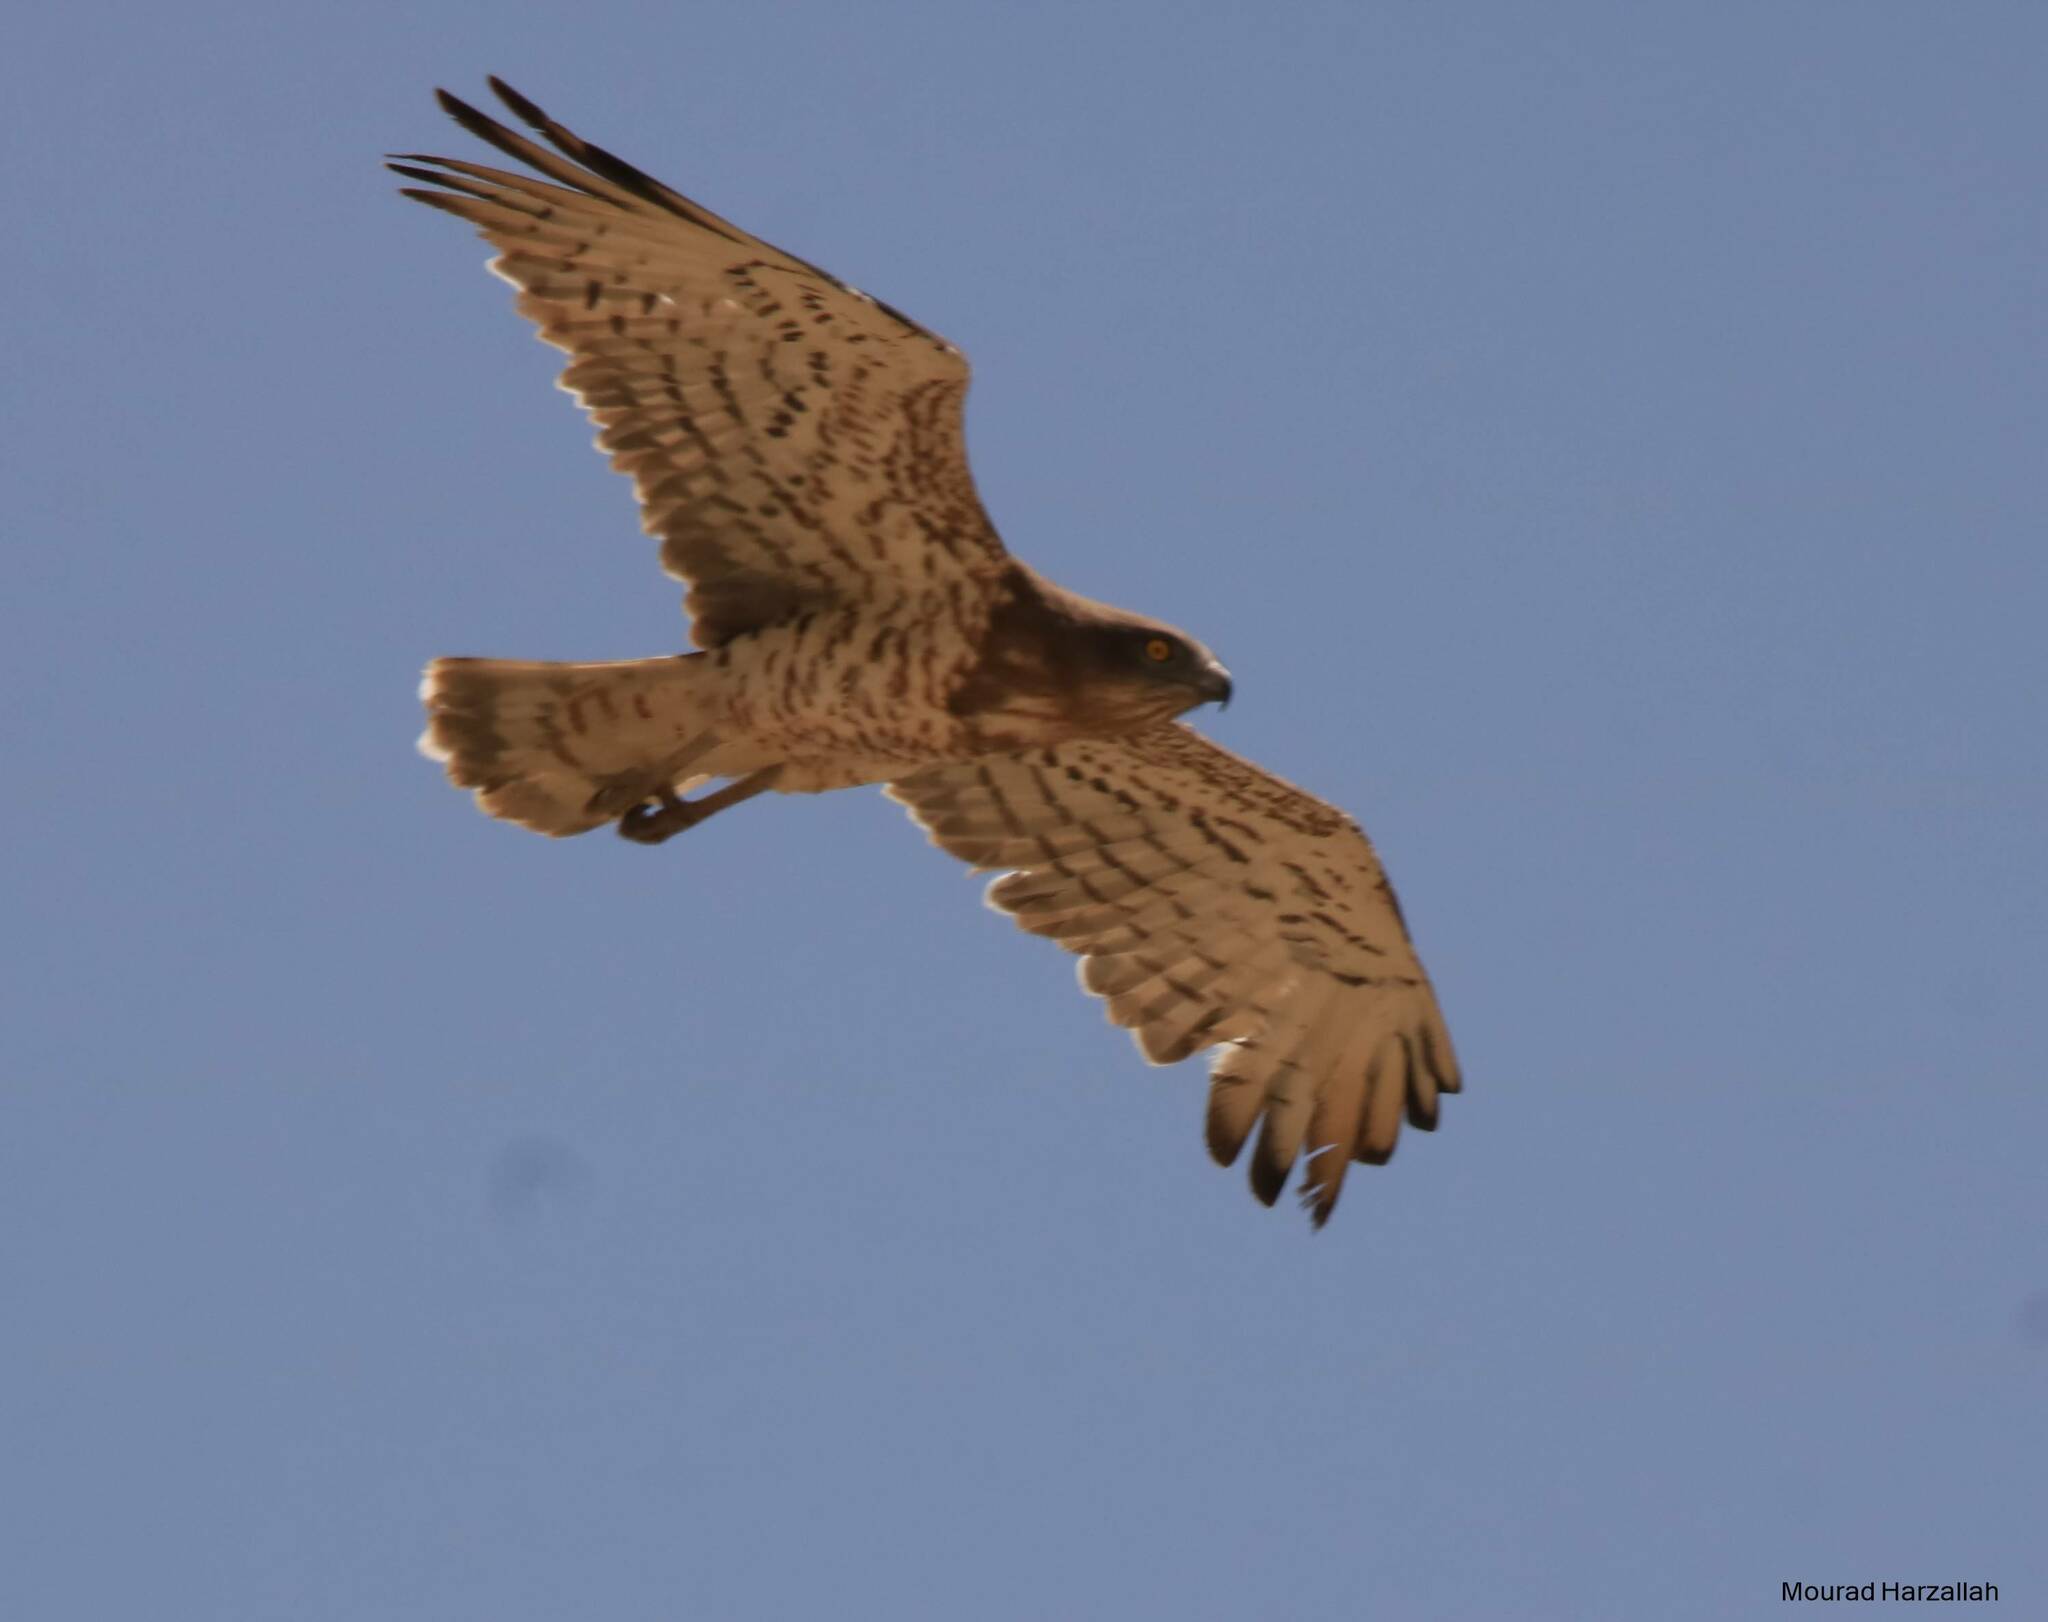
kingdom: Animalia
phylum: Chordata
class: Aves
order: Accipitriformes
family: Accipitridae
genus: Circaetus
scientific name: Circaetus gallicus
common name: Short-toed snake eagle
